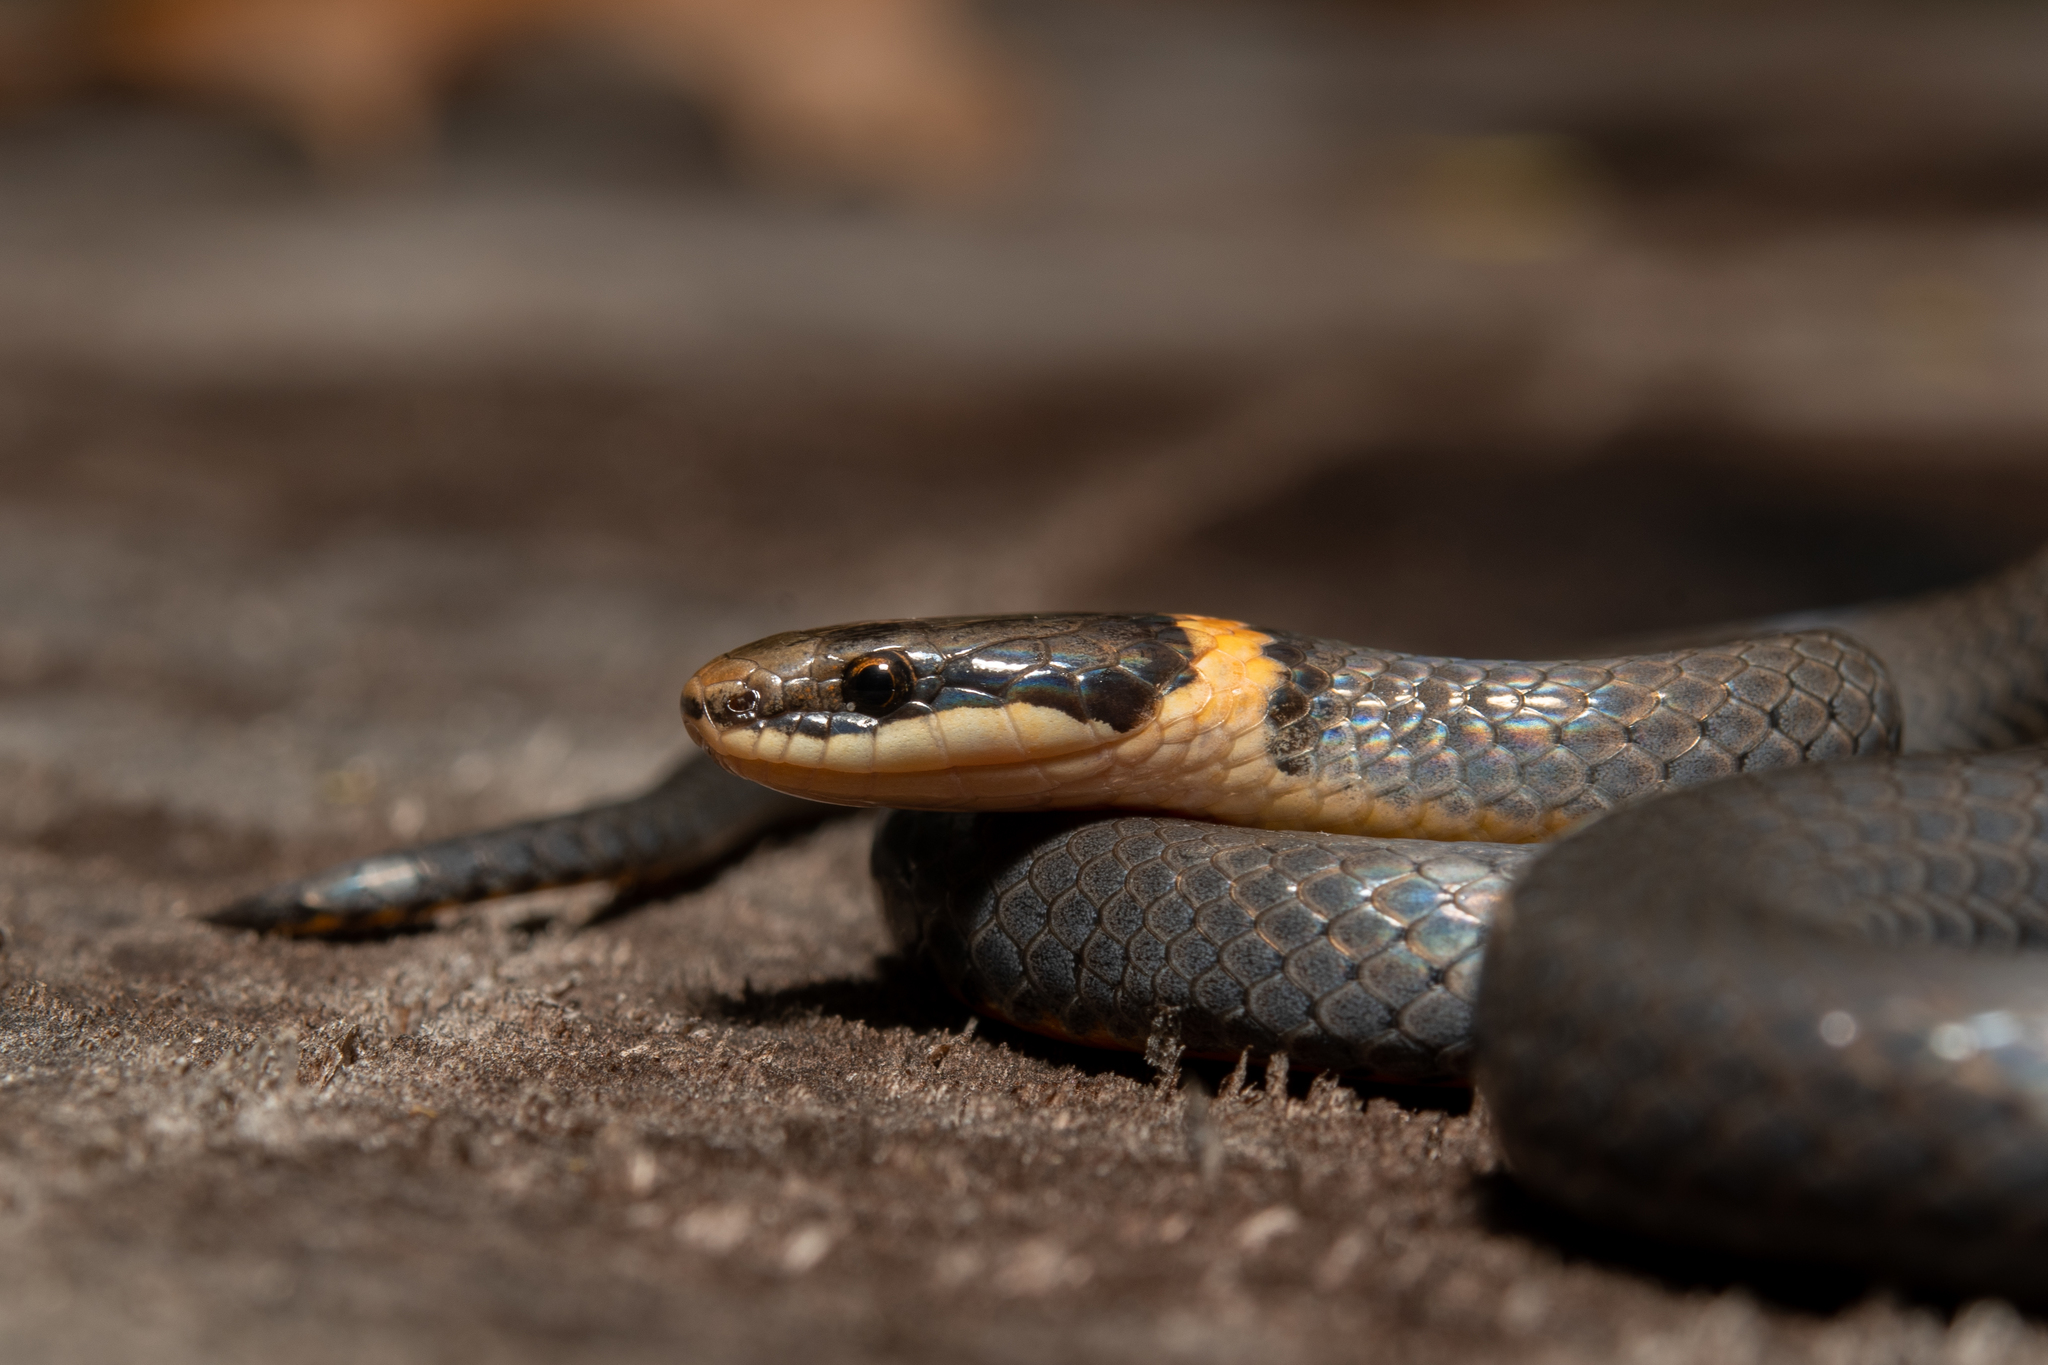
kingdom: Animalia
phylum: Chordata
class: Squamata
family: Colubridae
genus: Diadophis
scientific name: Diadophis punctatus
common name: Ringneck snake
